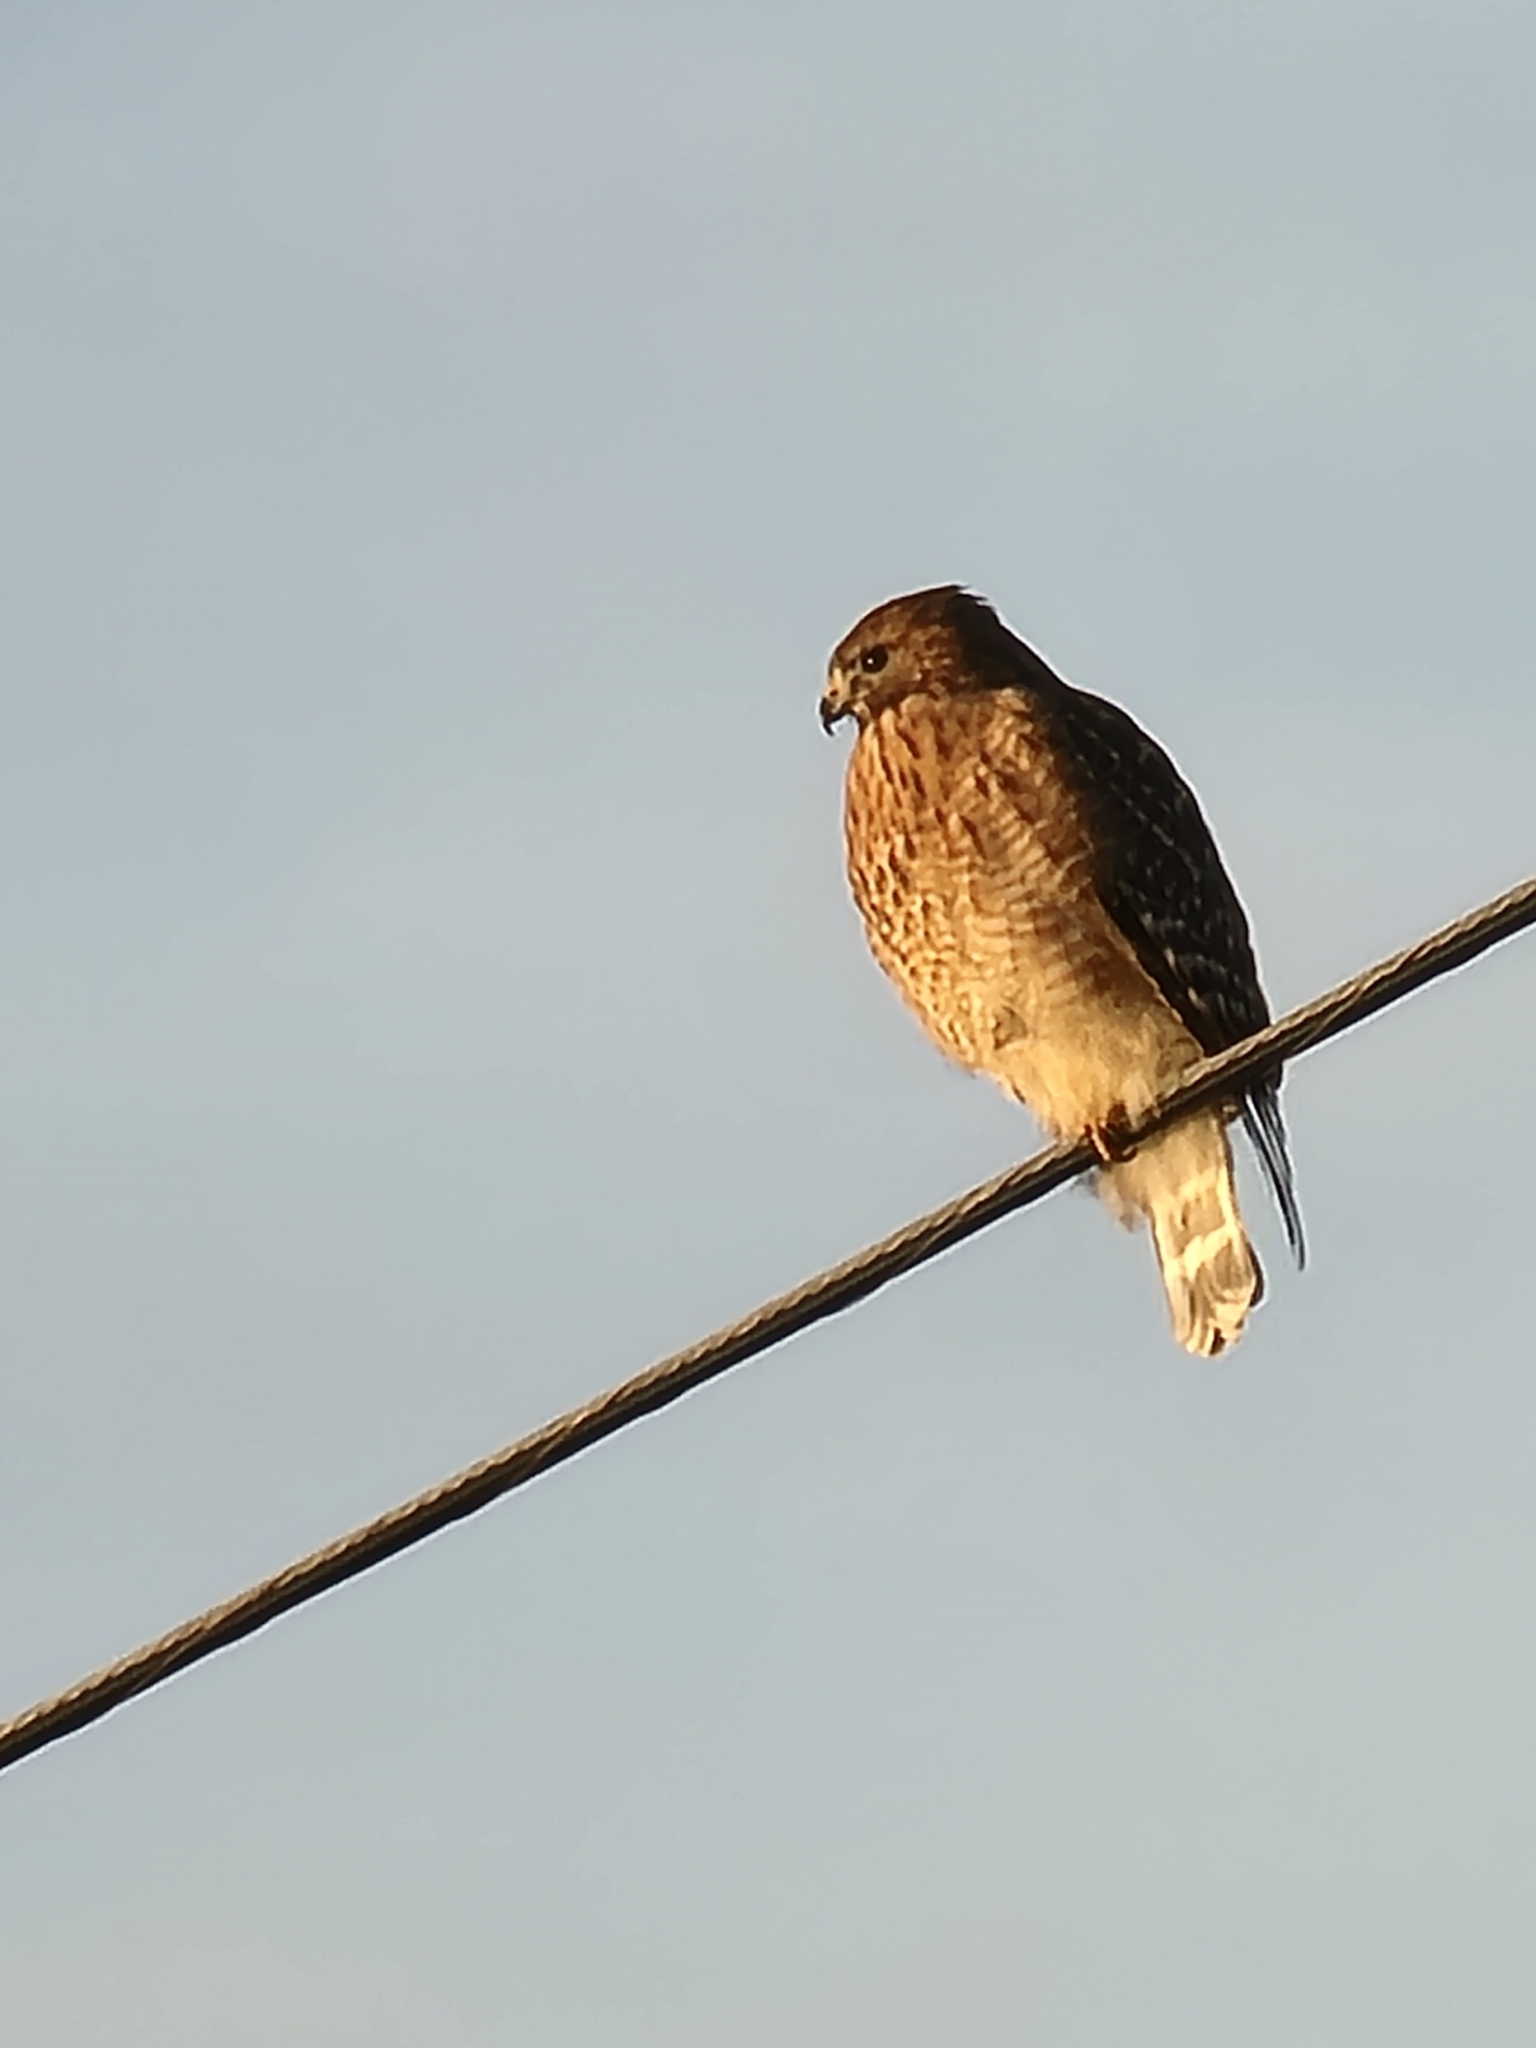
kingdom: Animalia
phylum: Chordata
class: Aves
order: Accipitriformes
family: Accipitridae
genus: Buteo
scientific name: Buteo lineatus
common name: Red-shouldered hawk
